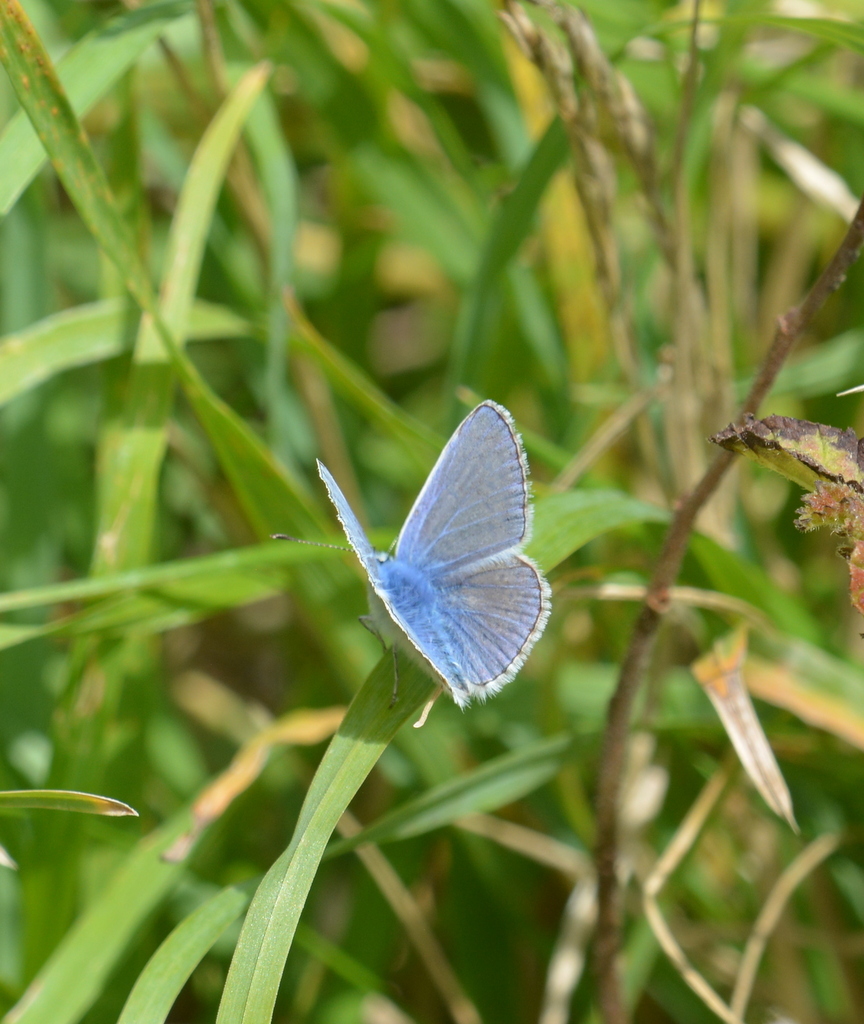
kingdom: Animalia
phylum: Arthropoda
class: Insecta
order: Lepidoptera
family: Lycaenidae
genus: Polyommatus
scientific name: Polyommatus icarus
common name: Common blue
